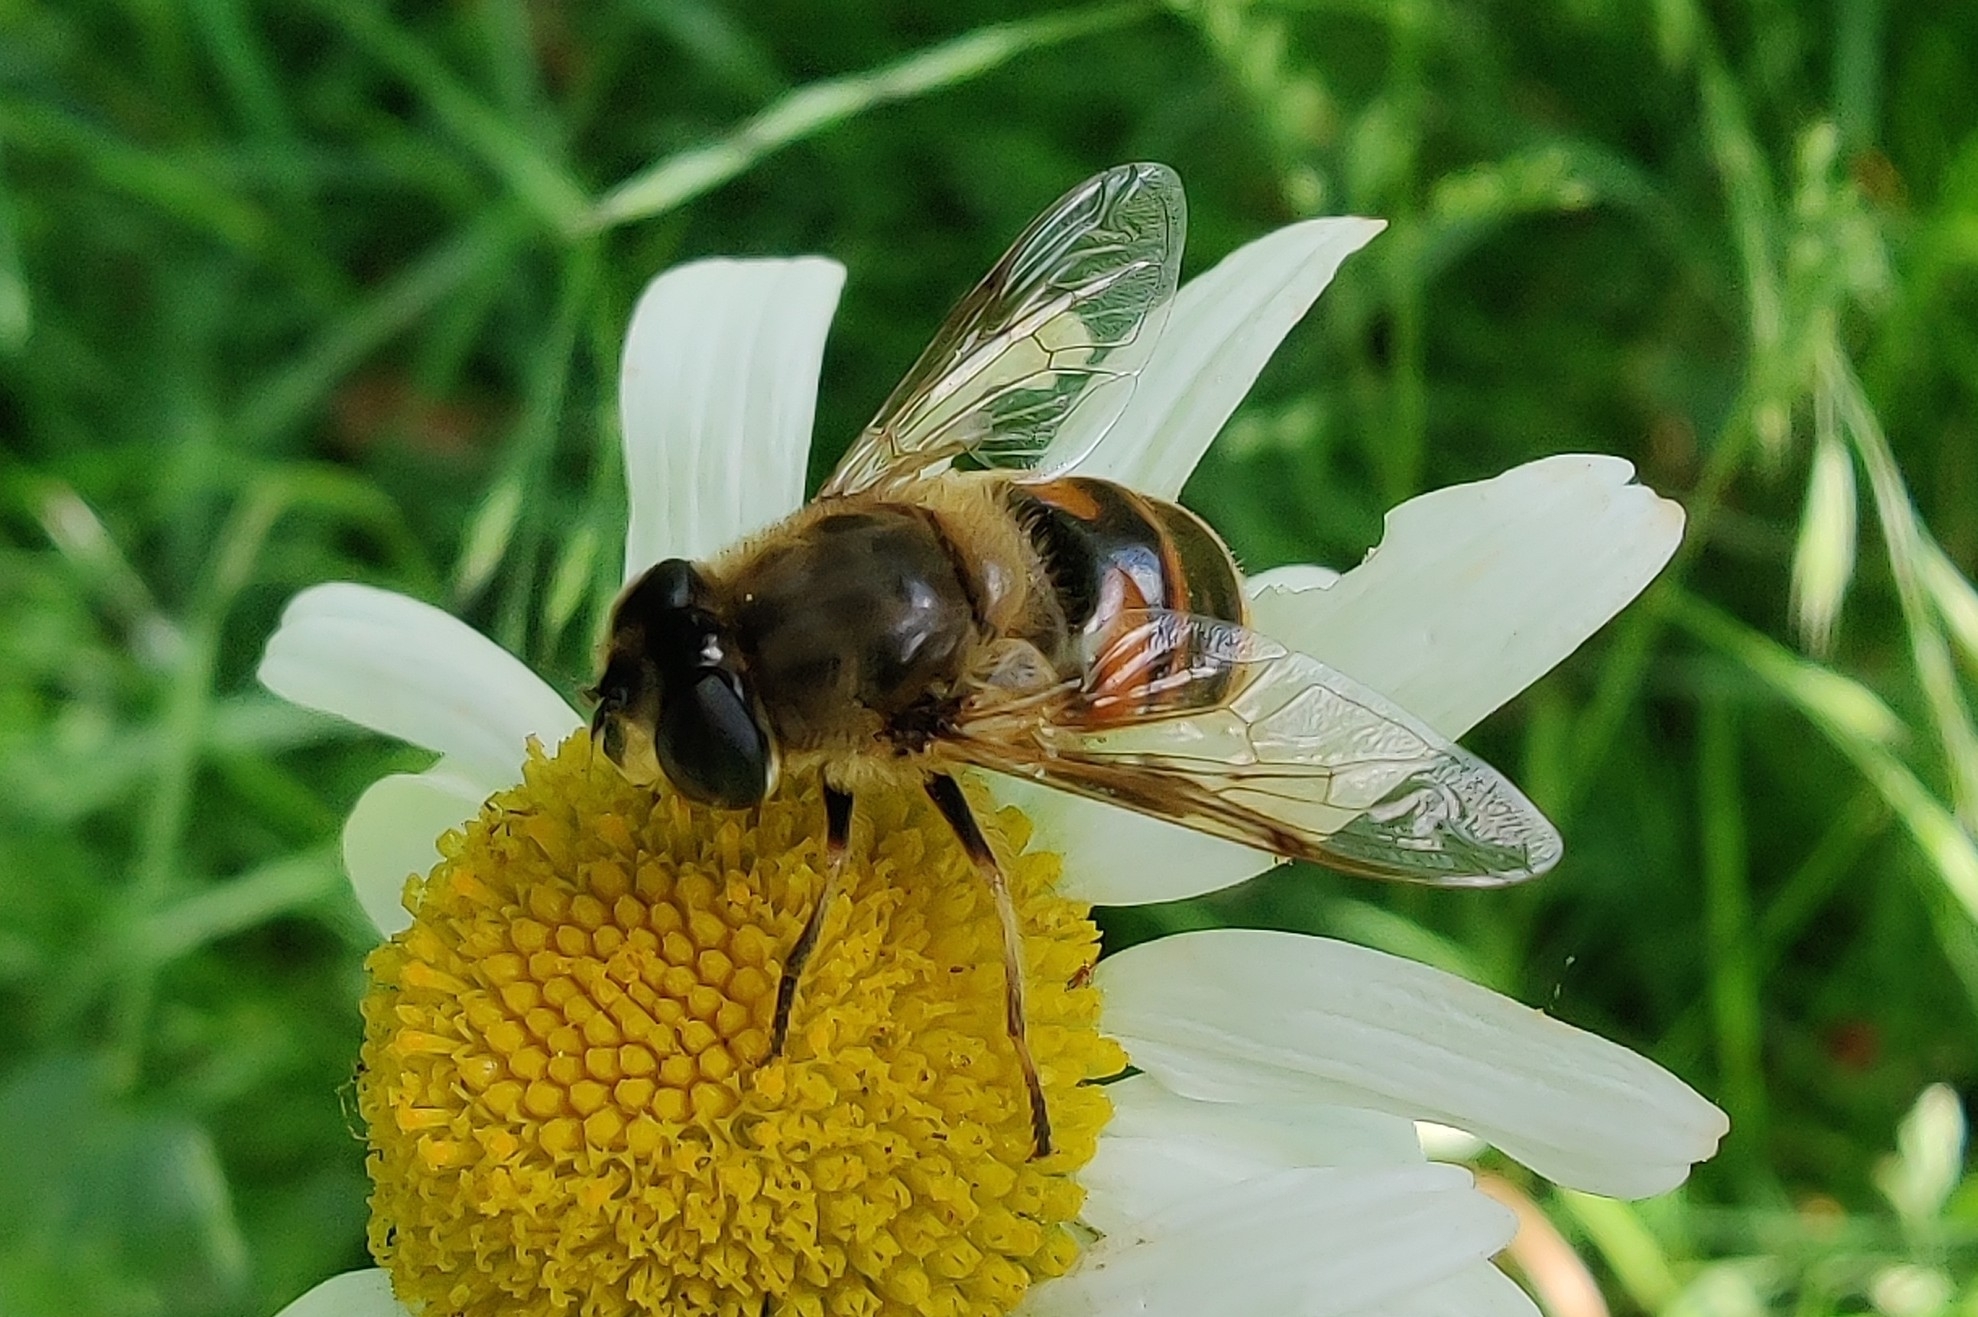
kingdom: Animalia
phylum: Arthropoda
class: Insecta
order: Diptera
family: Syrphidae
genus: Eristalis
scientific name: Eristalis tenax
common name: Drone fly
